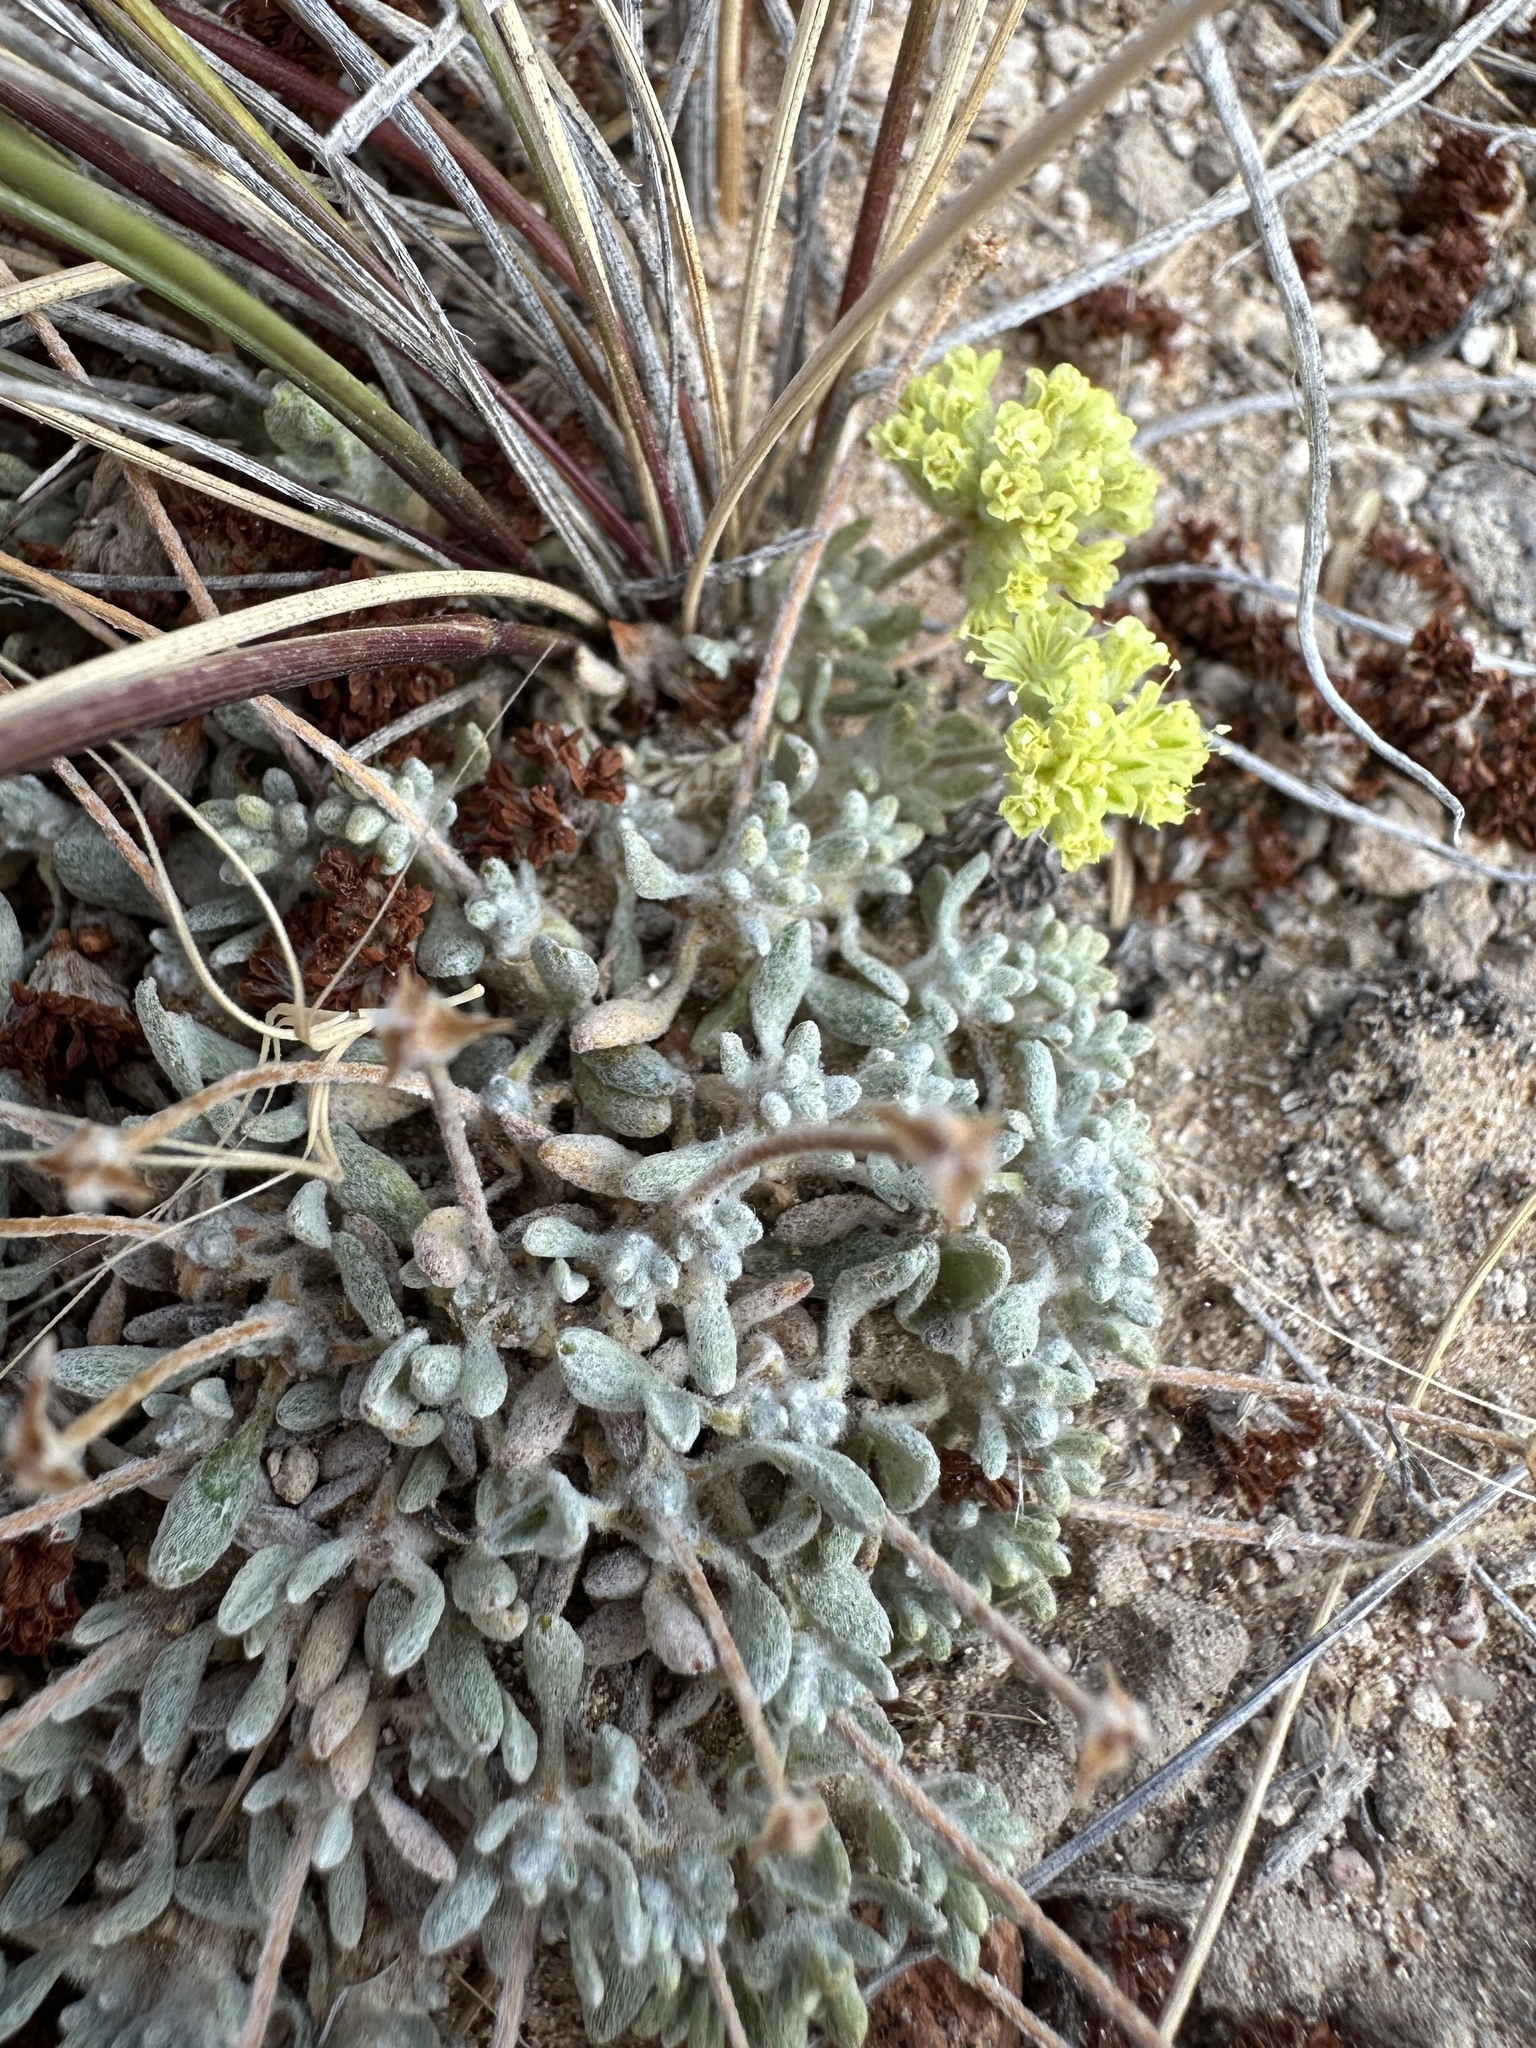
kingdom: Plantae
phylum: Tracheophyta
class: Magnoliopsida
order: Caryophyllales
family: Polygonaceae
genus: Eriogonum
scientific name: Eriogonum shockleyi
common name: Shockley's wild buckwheat
